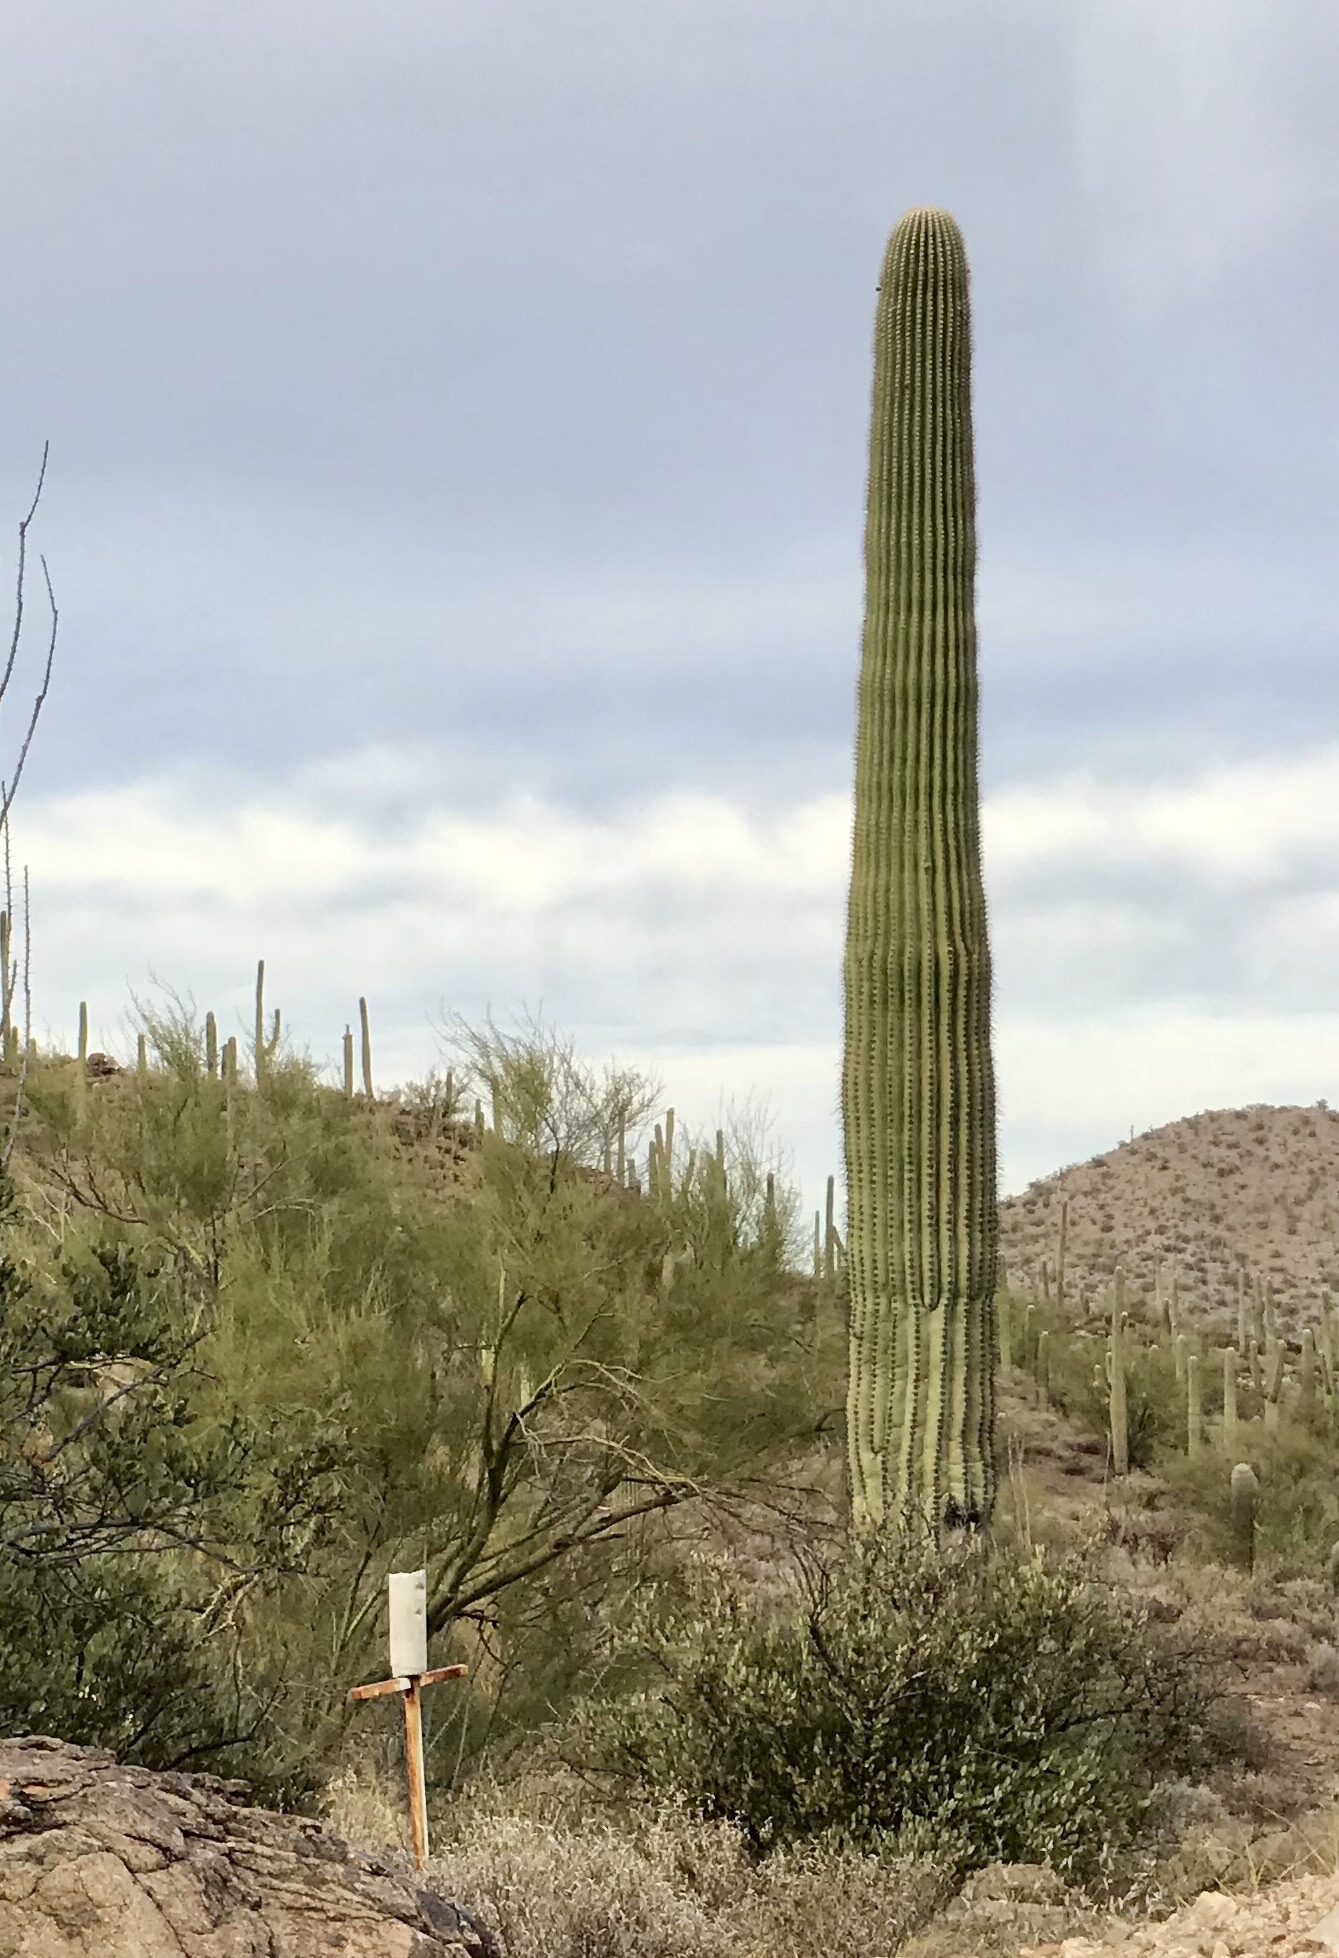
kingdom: Plantae
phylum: Tracheophyta
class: Magnoliopsida
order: Caryophyllales
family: Cactaceae
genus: Carnegiea
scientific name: Carnegiea gigantea
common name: Saguaro
